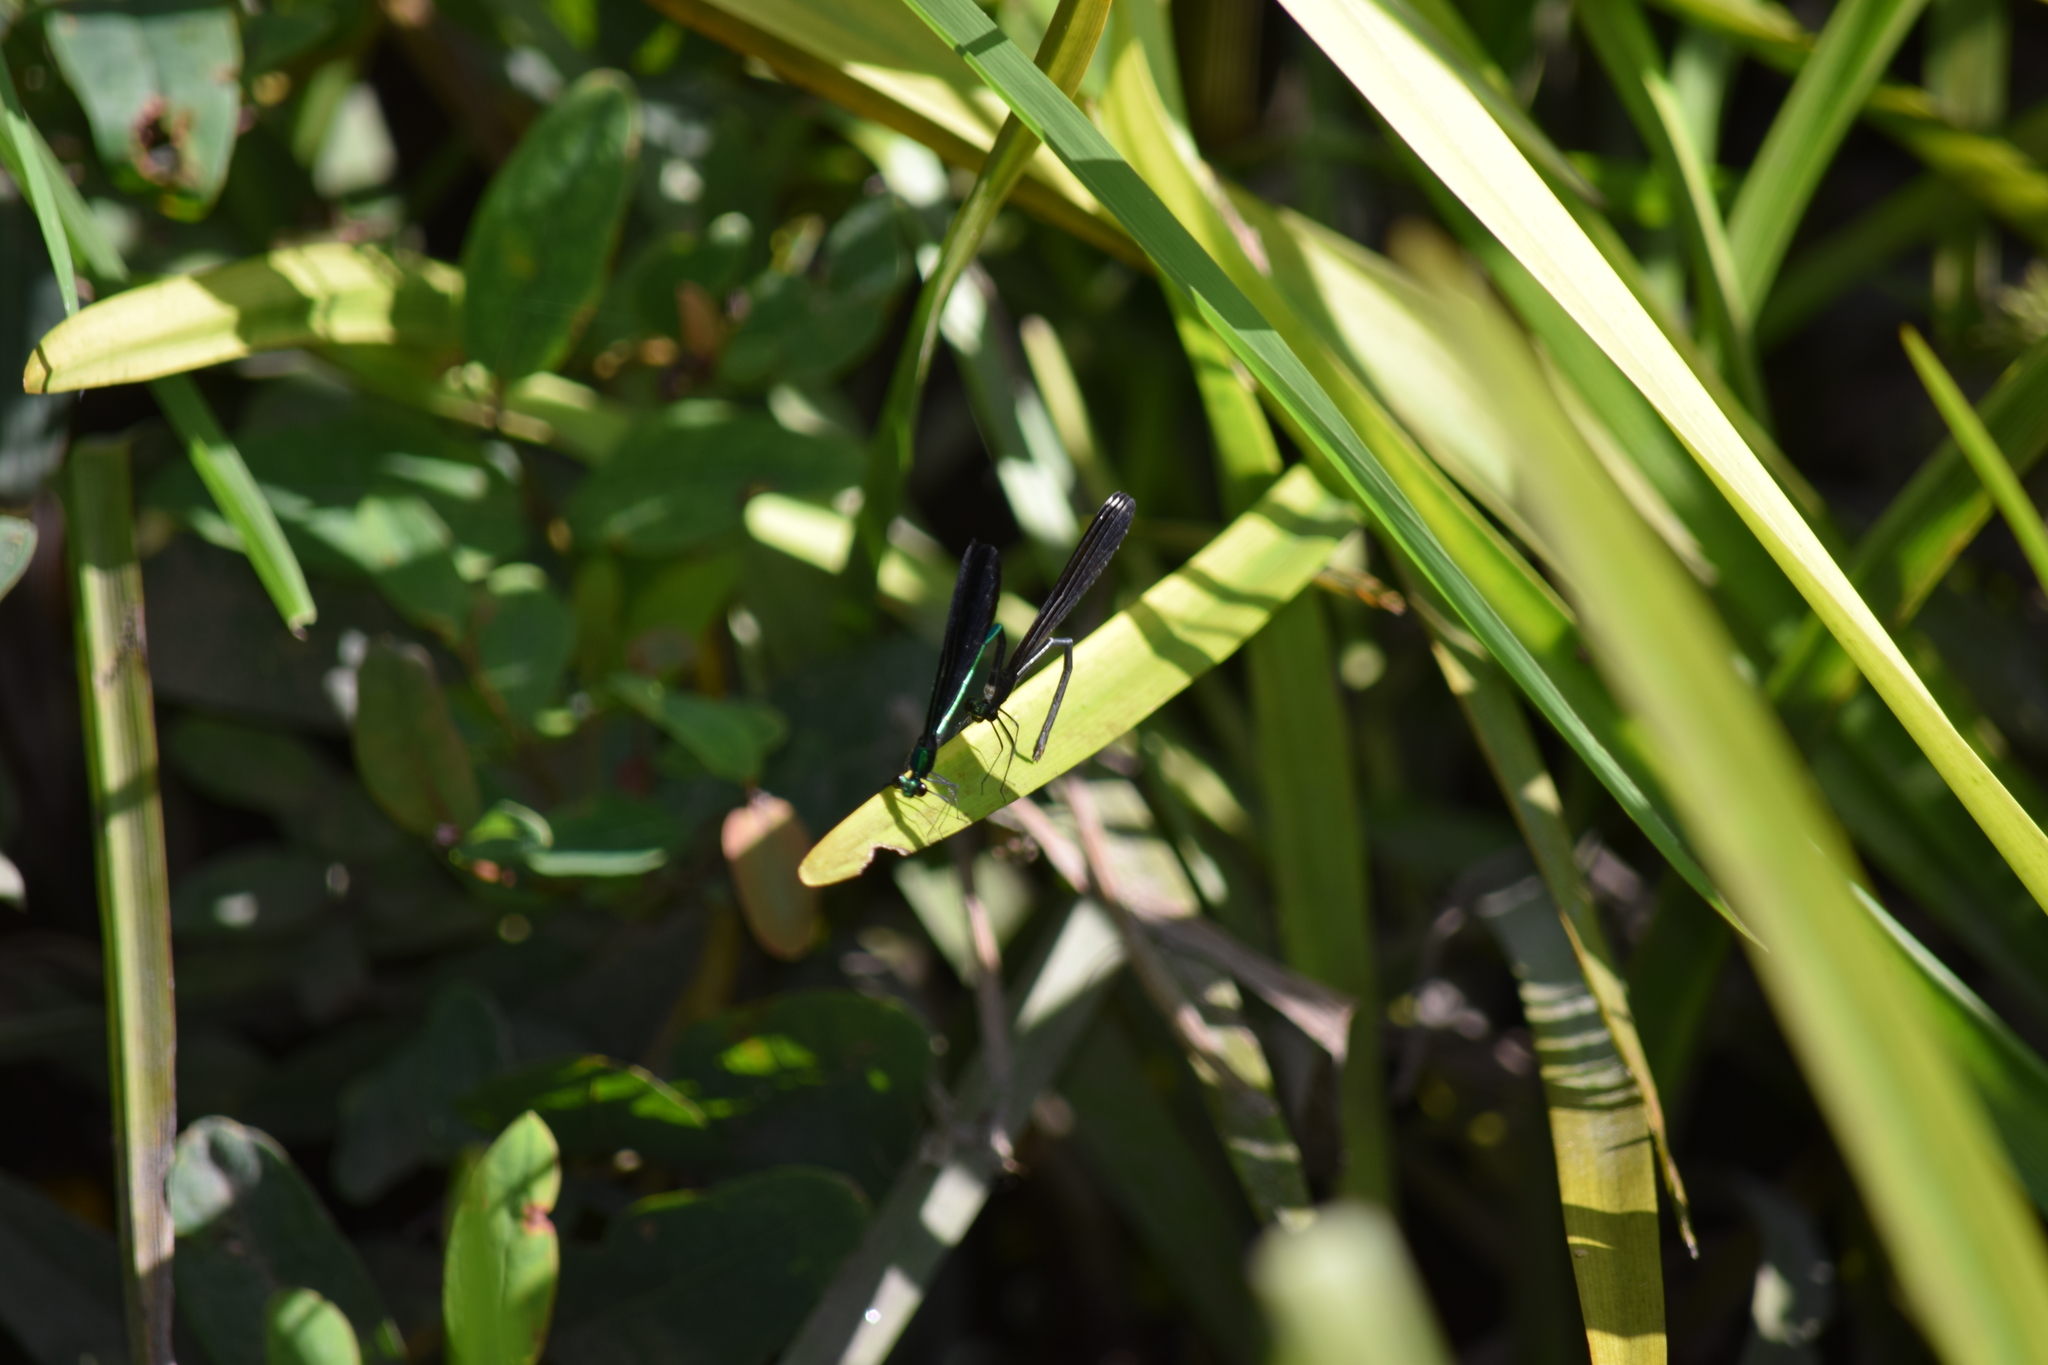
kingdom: Animalia
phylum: Arthropoda
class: Insecta
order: Odonata
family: Calopterygidae
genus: Calopteryx
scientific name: Calopteryx maculata
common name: Ebony jewelwing
